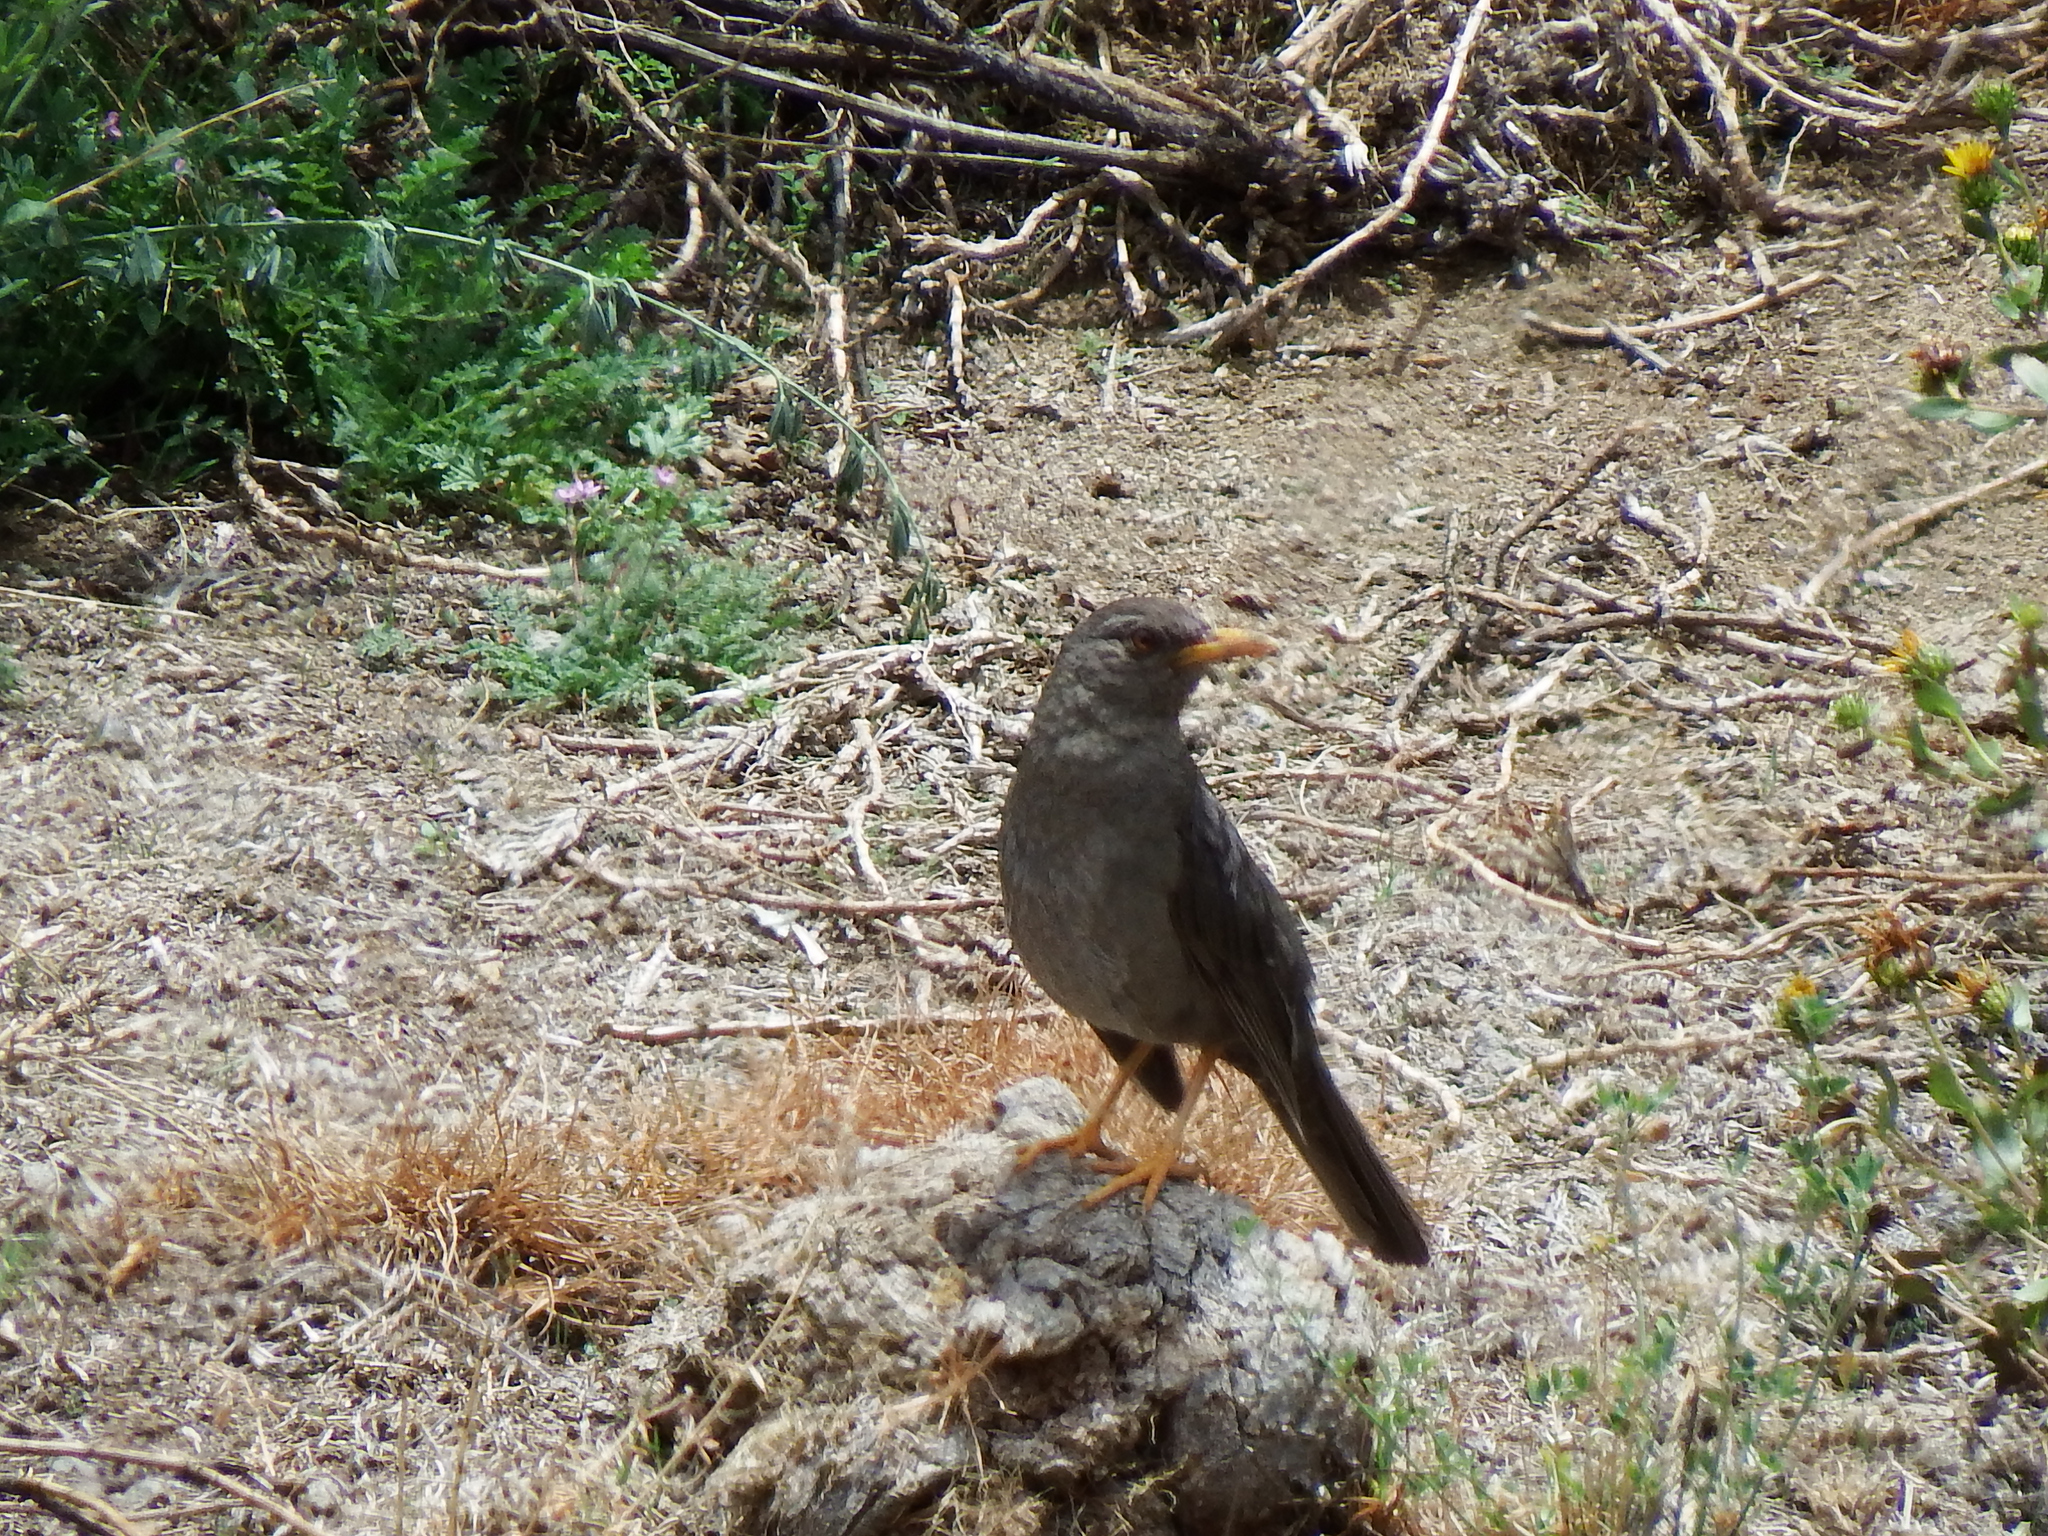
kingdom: Animalia
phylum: Chordata
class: Aves
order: Passeriformes
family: Turdidae
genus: Turdus
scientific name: Turdus chiguanco
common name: Chiguanco thrush
